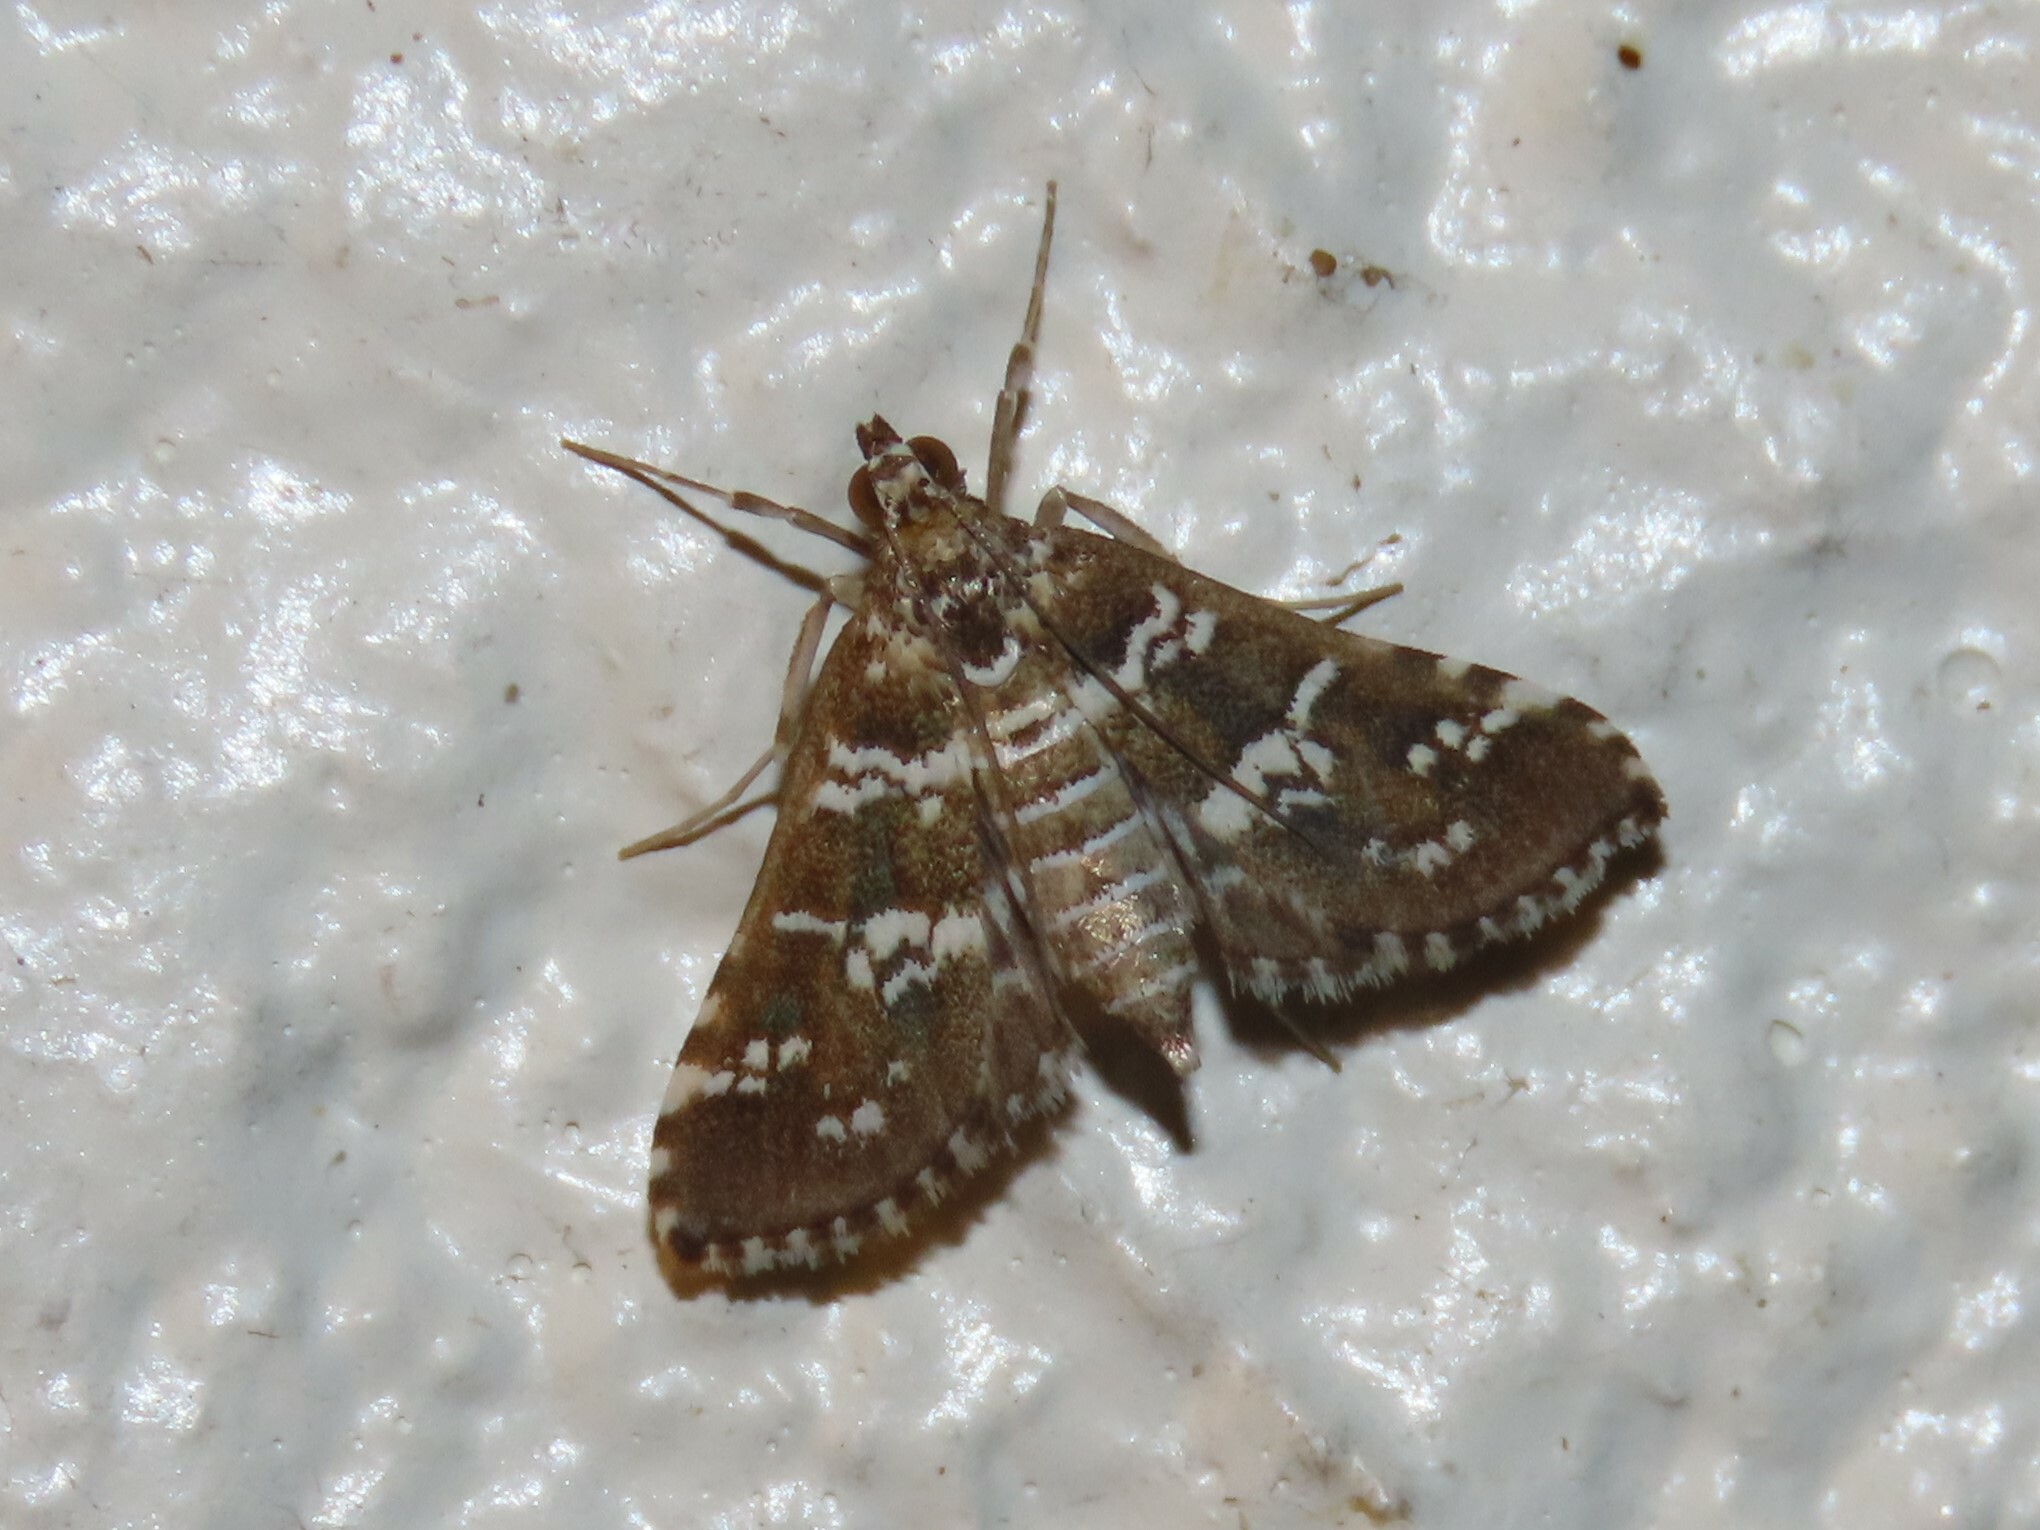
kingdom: Animalia
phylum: Arthropoda
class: Insecta
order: Lepidoptera
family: Crambidae
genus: Samea
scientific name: Samea druchachalis
